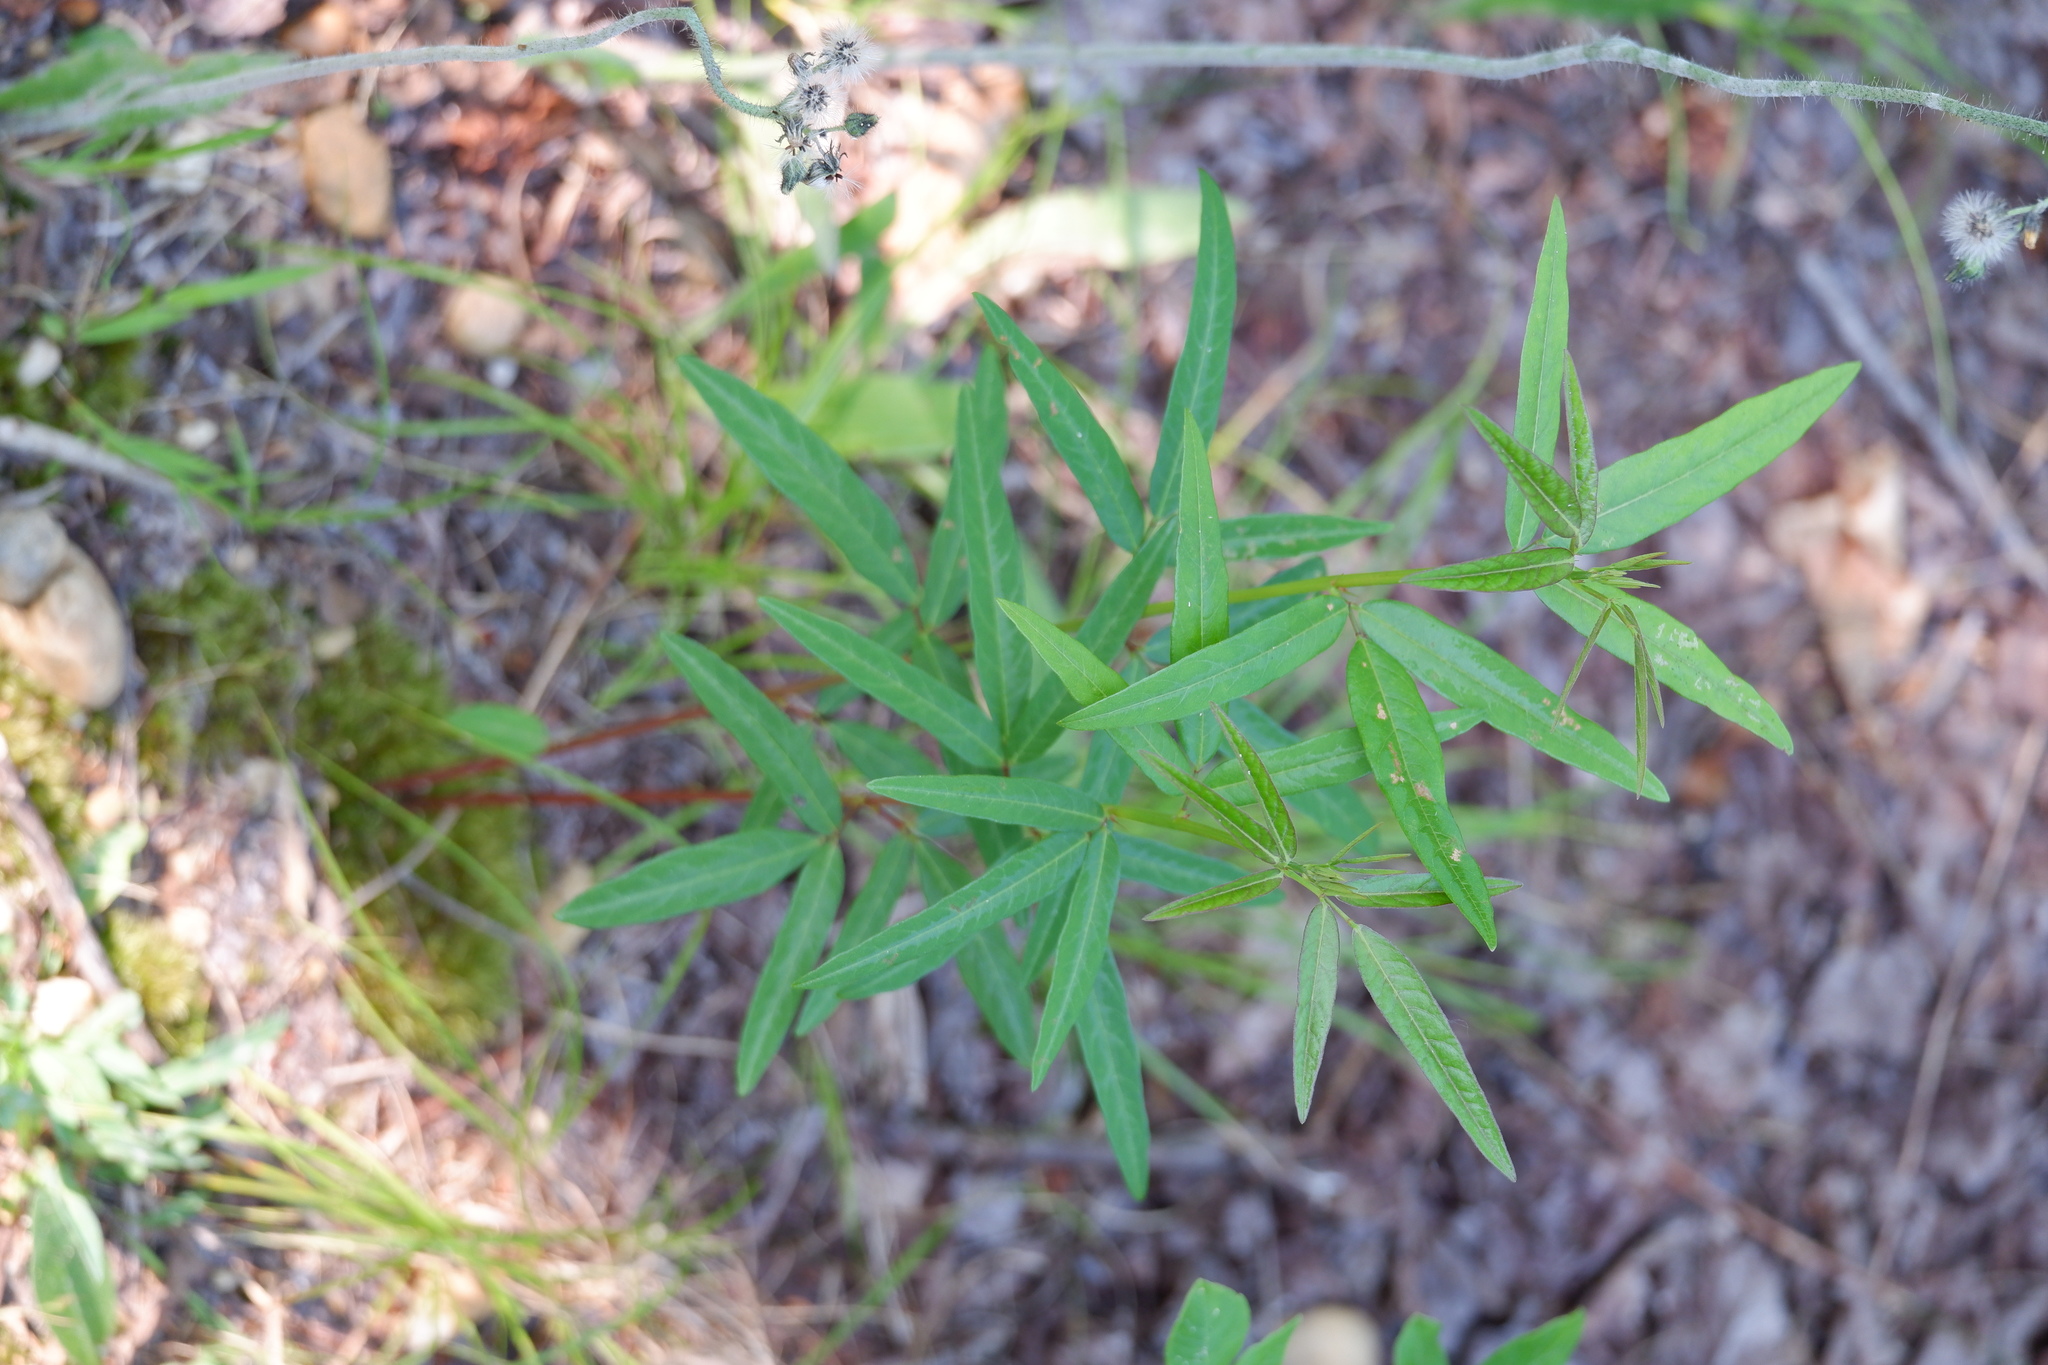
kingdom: Plantae
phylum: Tracheophyta
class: Magnoliopsida
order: Fabales
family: Fabaceae
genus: Desmodium
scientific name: Desmodium paniculatum
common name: Panicled tick-clover
